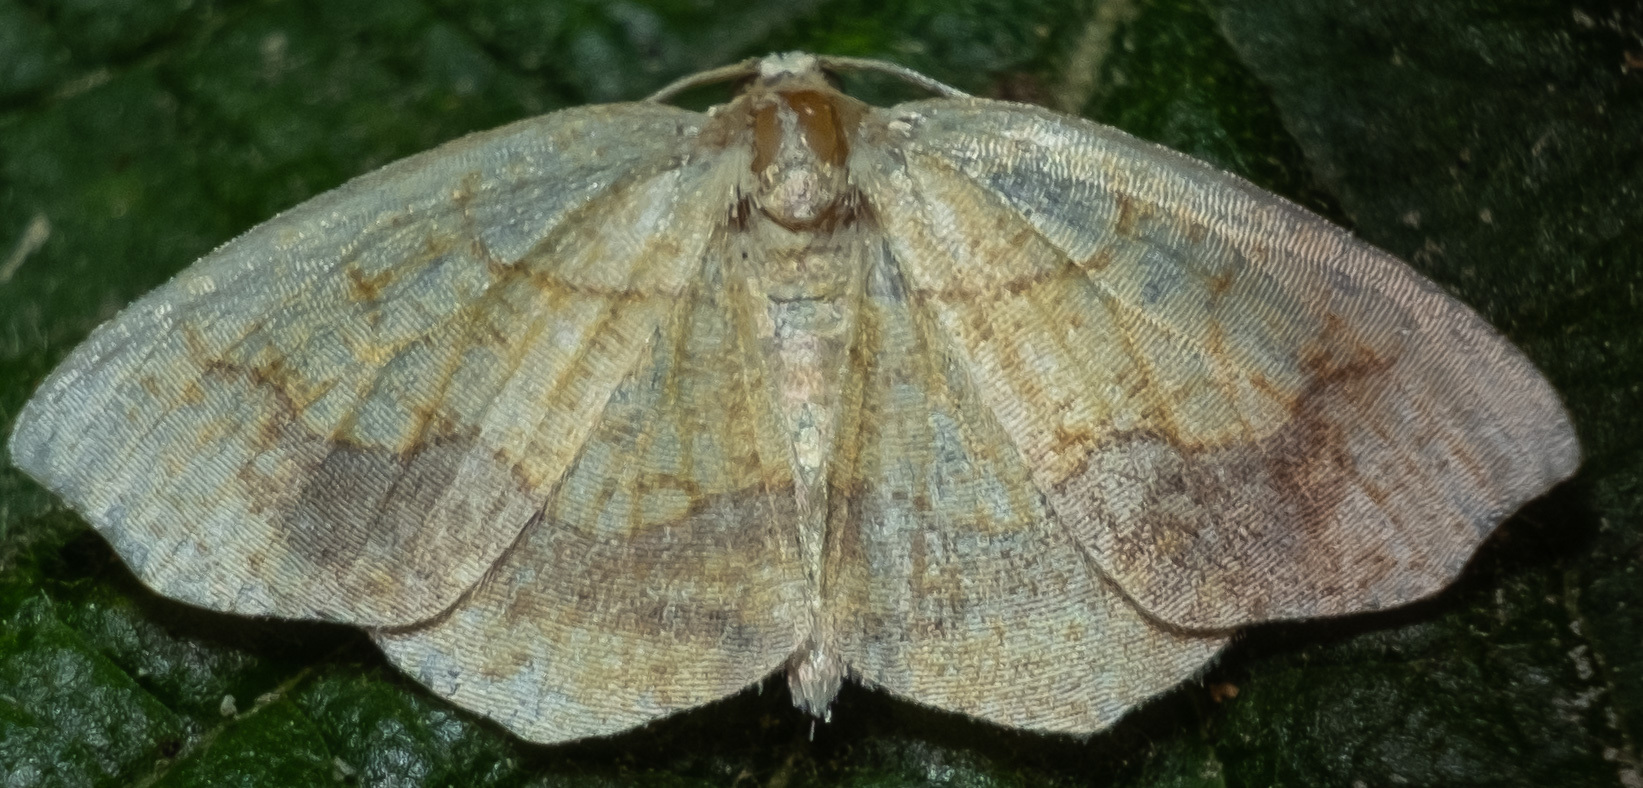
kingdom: Animalia
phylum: Arthropoda
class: Insecta
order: Lepidoptera
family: Geometridae
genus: Nematocampa
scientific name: Nematocampa resistaria
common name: Horned spanworm moth
